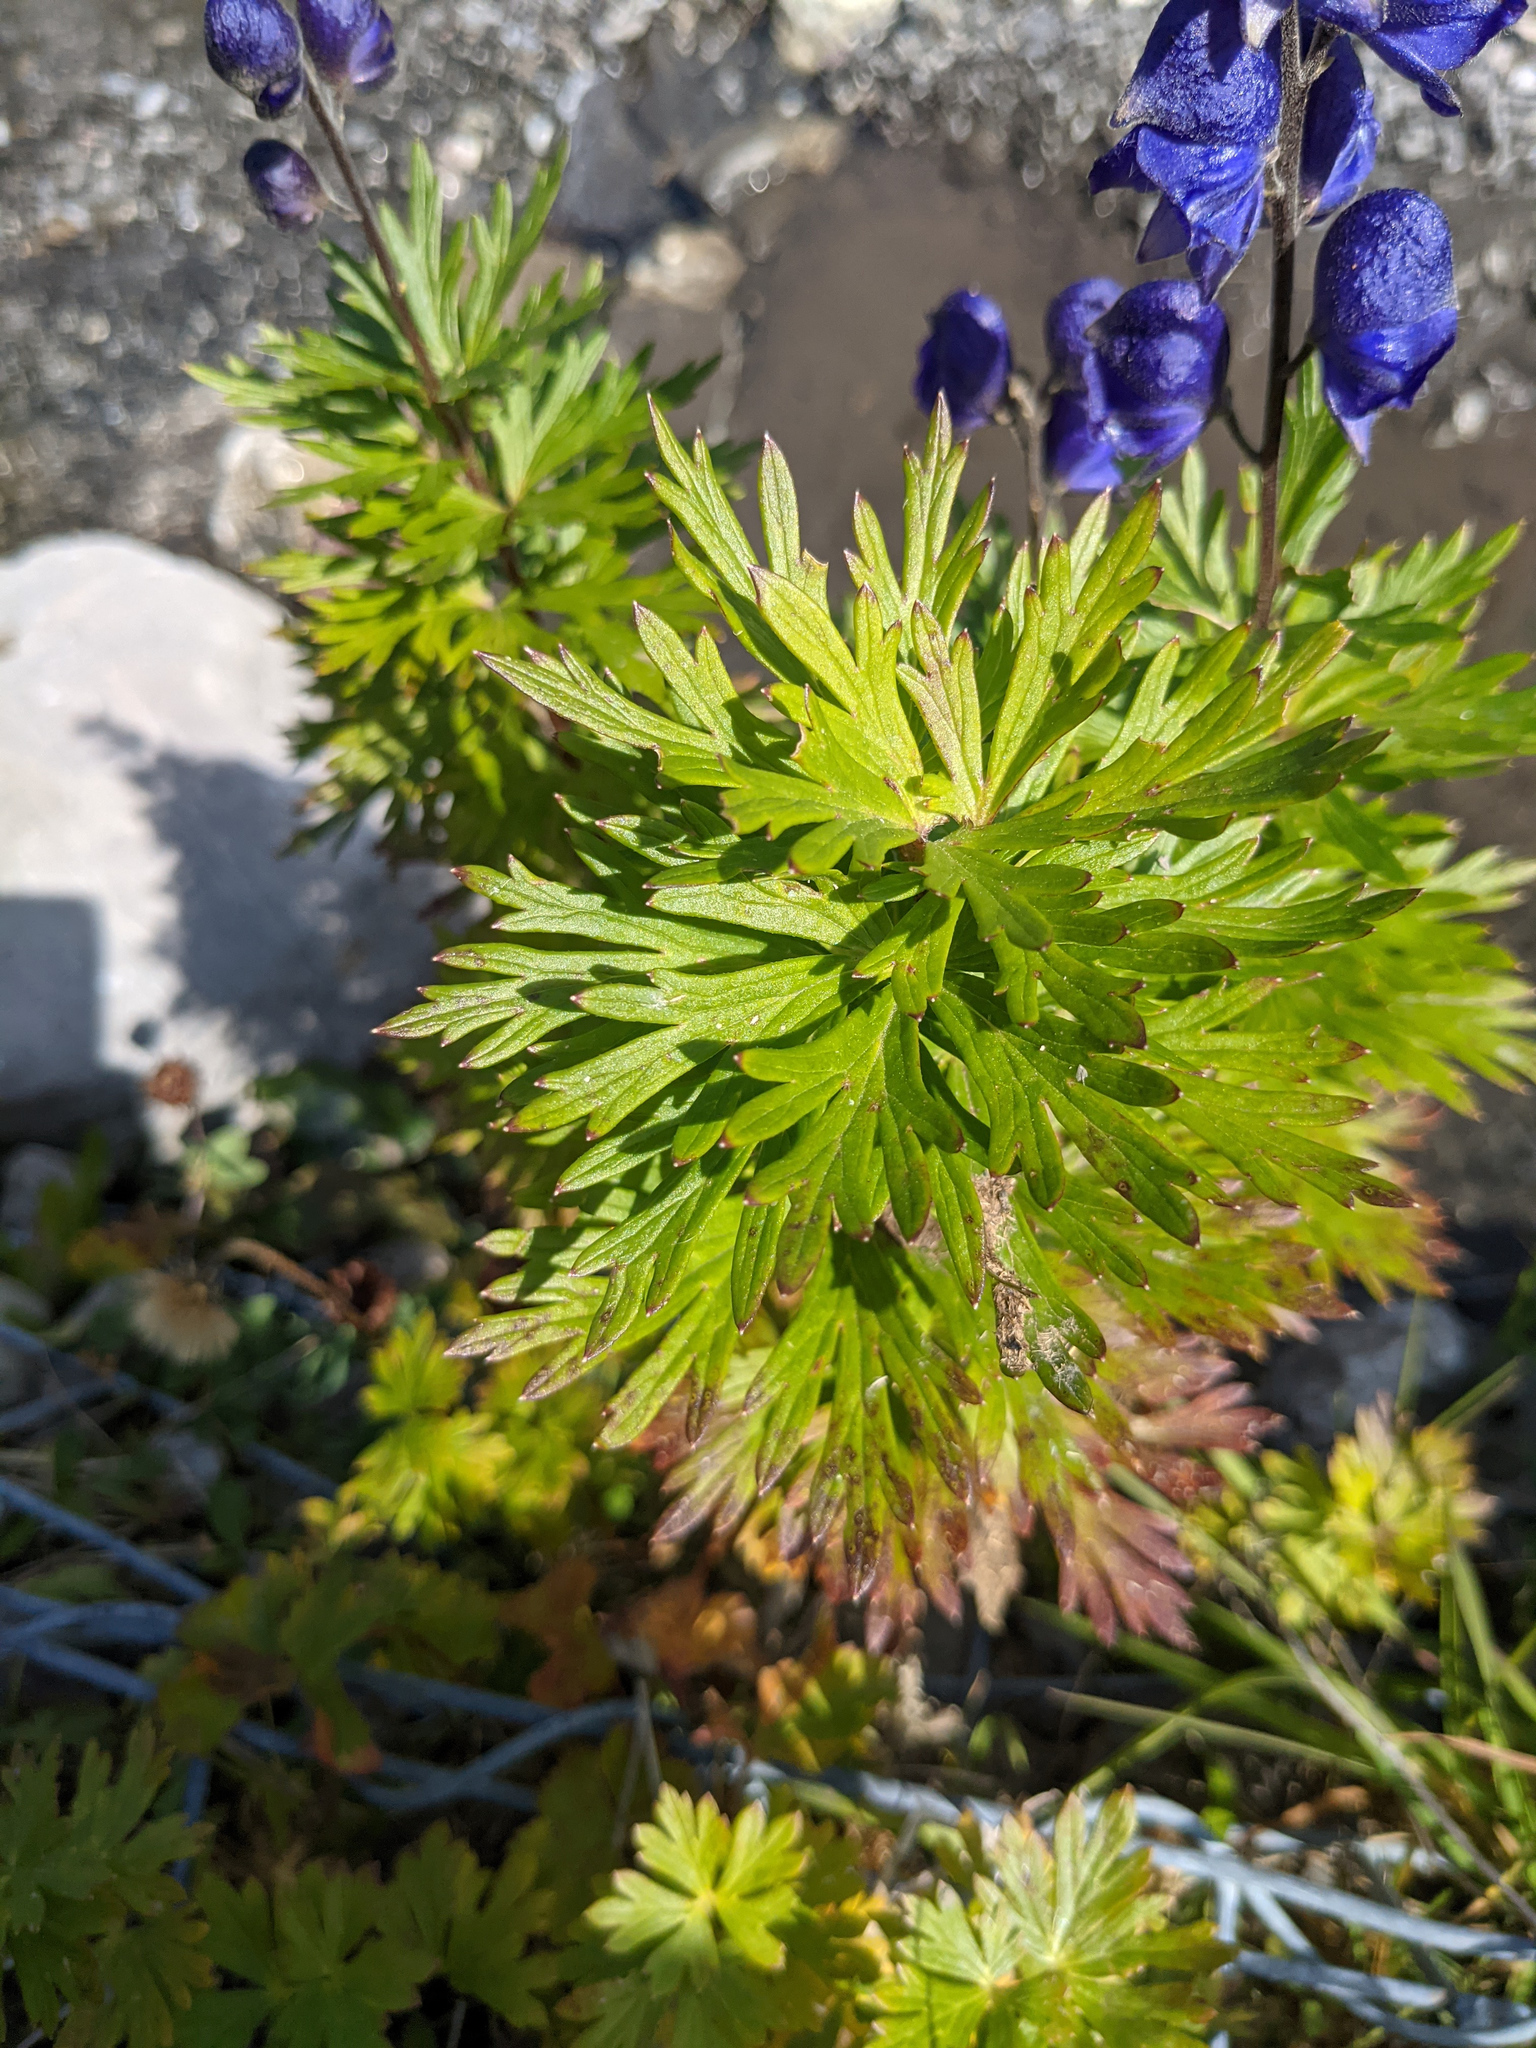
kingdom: Plantae
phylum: Tracheophyta
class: Magnoliopsida
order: Ranunculales
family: Ranunculaceae
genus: Aconitum
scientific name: Aconitum napellus
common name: Garden monkshood
